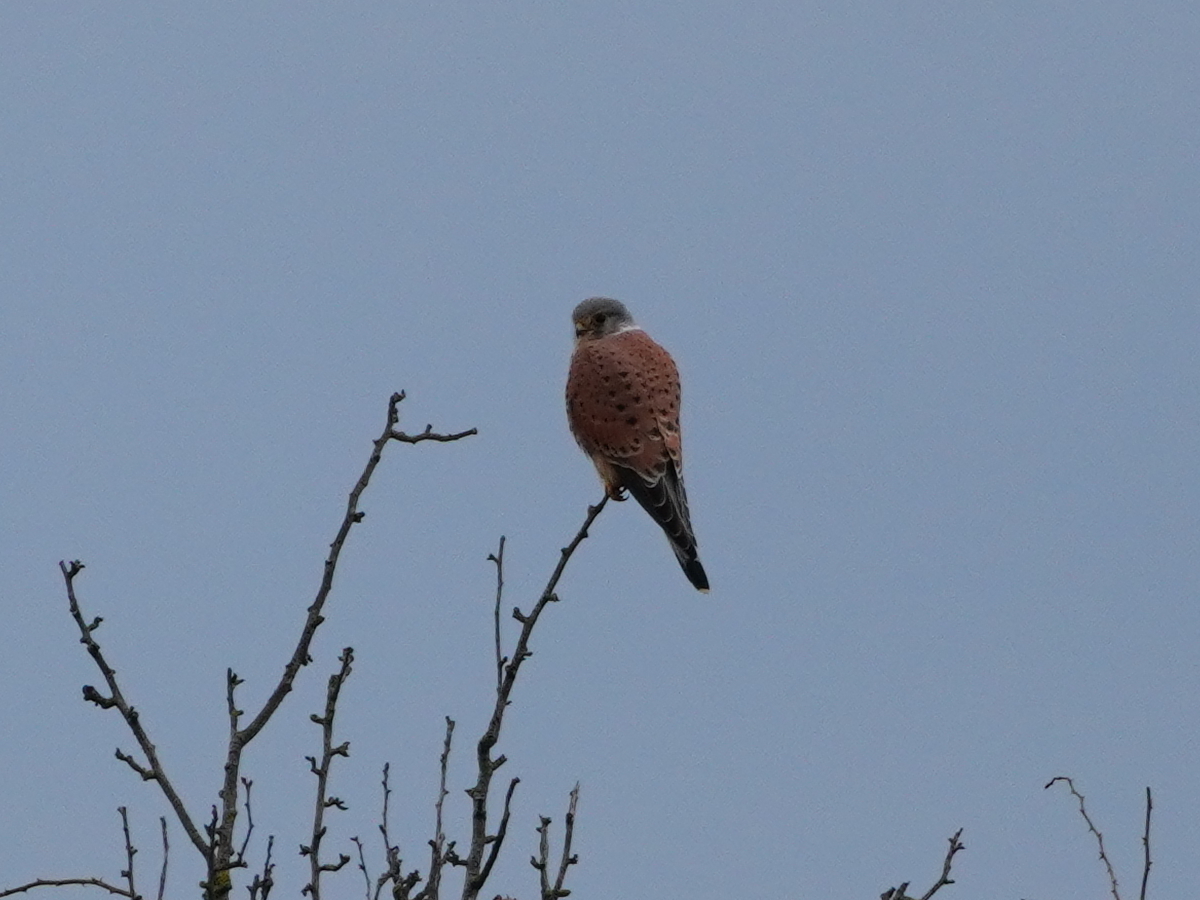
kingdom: Animalia
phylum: Chordata
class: Aves
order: Falconiformes
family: Falconidae
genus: Falco
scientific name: Falco tinnunculus
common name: Common kestrel
